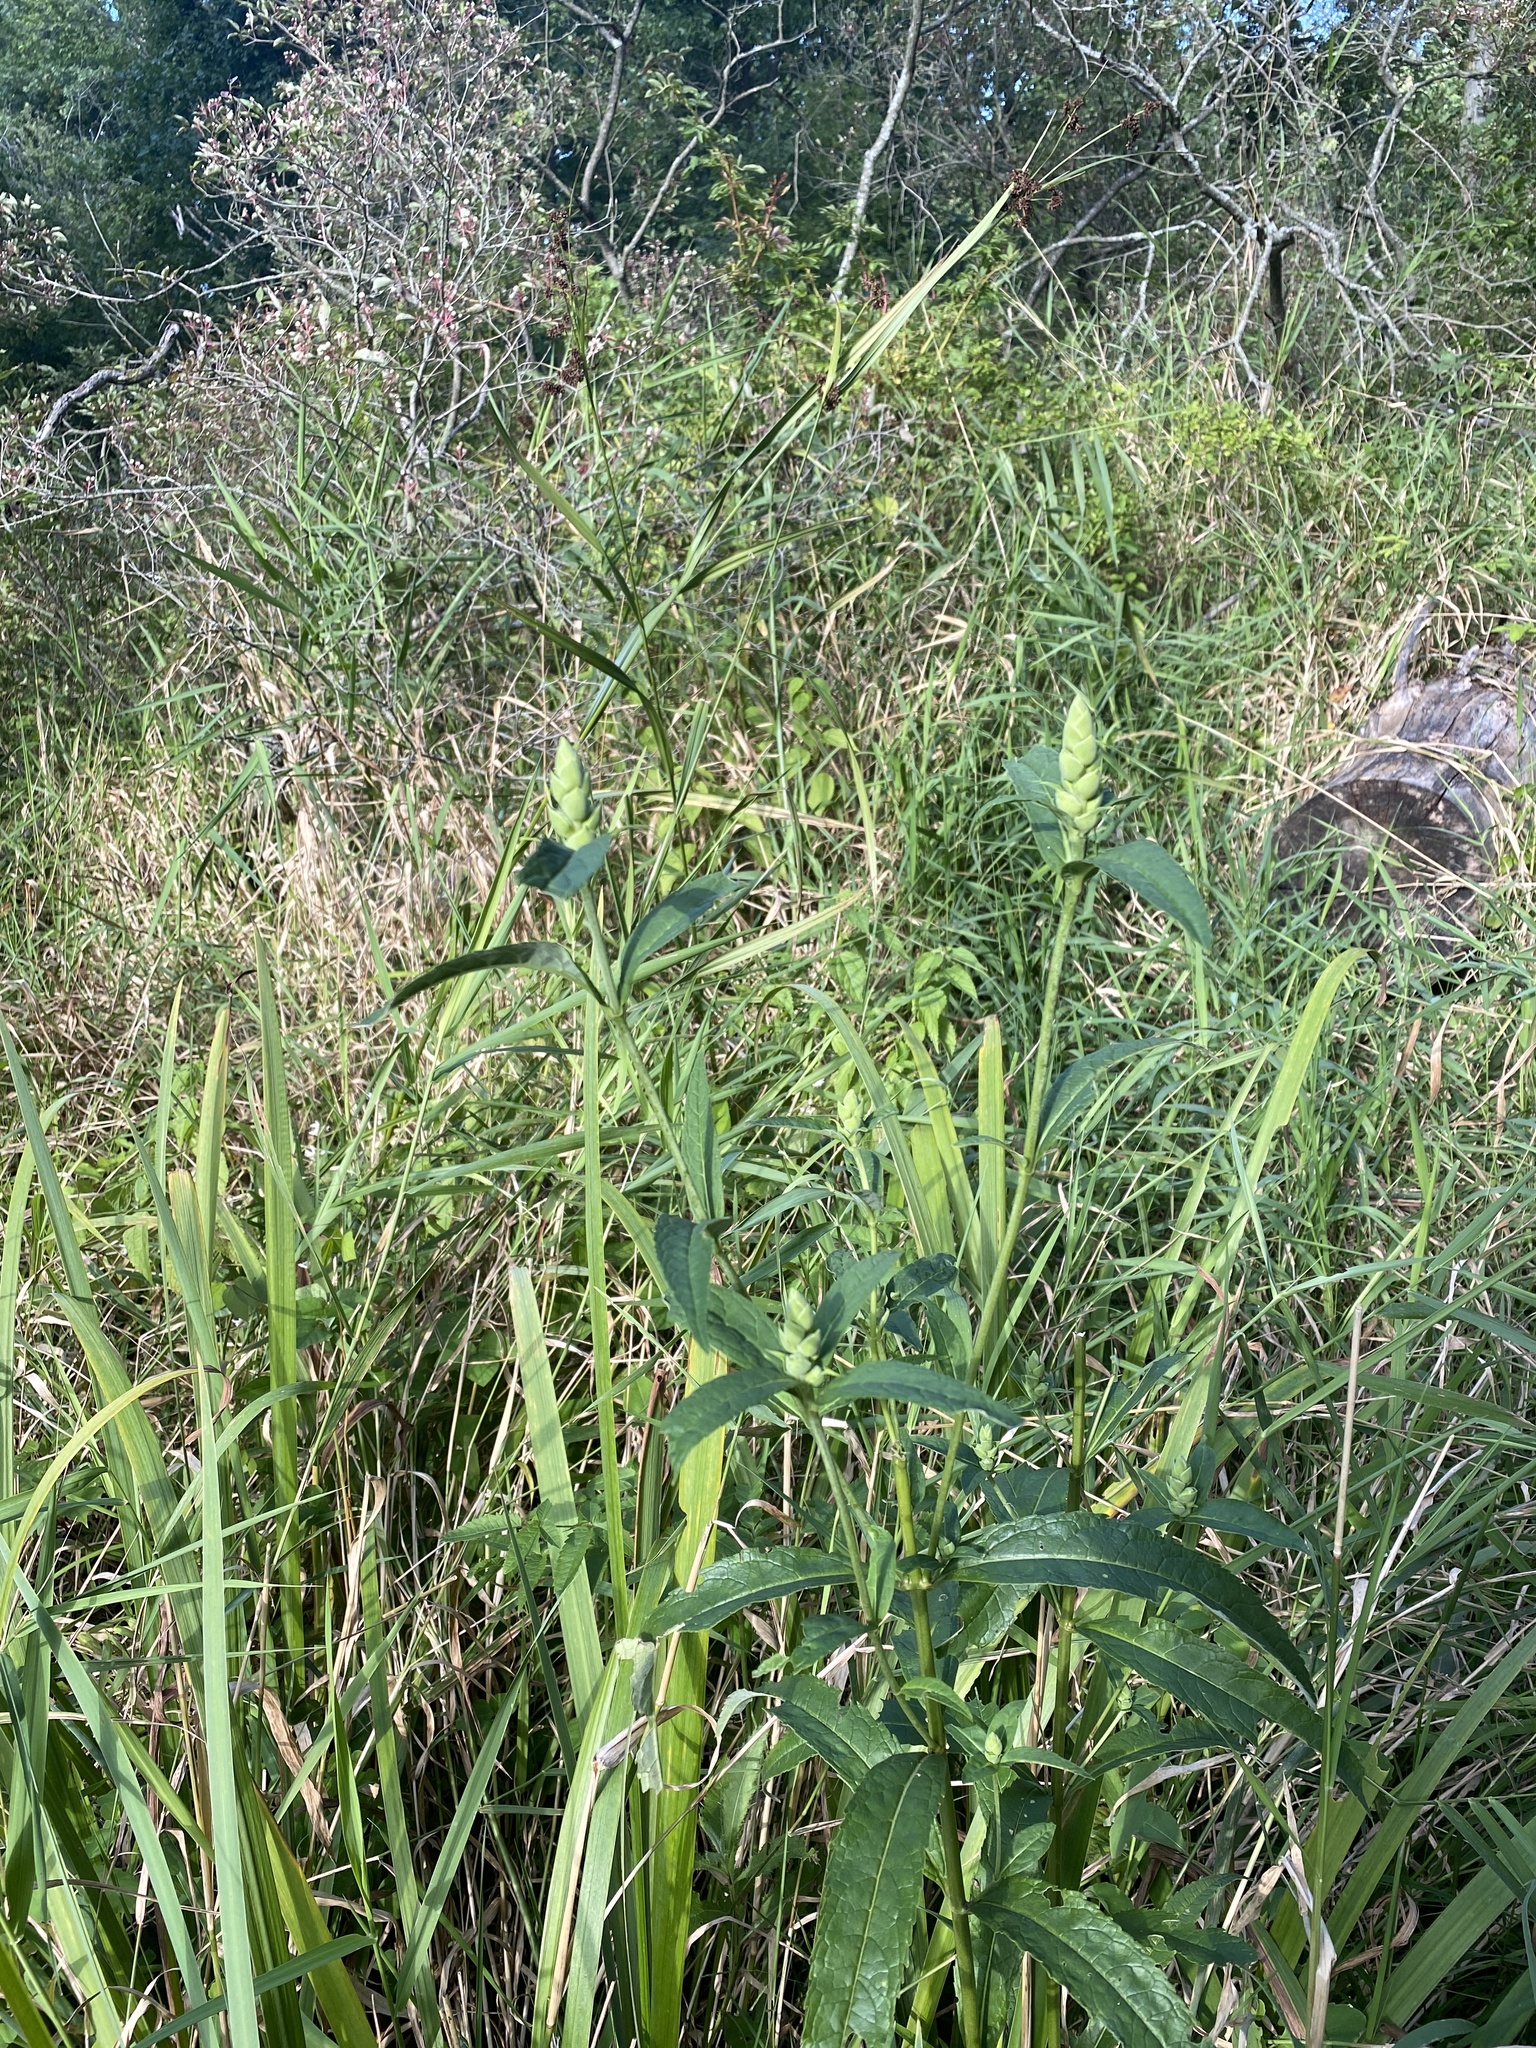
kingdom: Plantae
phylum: Tracheophyta
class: Magnoliopsida
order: Lamiales
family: Plantaginaceae
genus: Chelone
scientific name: Chelone glabra
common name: Snakehead
